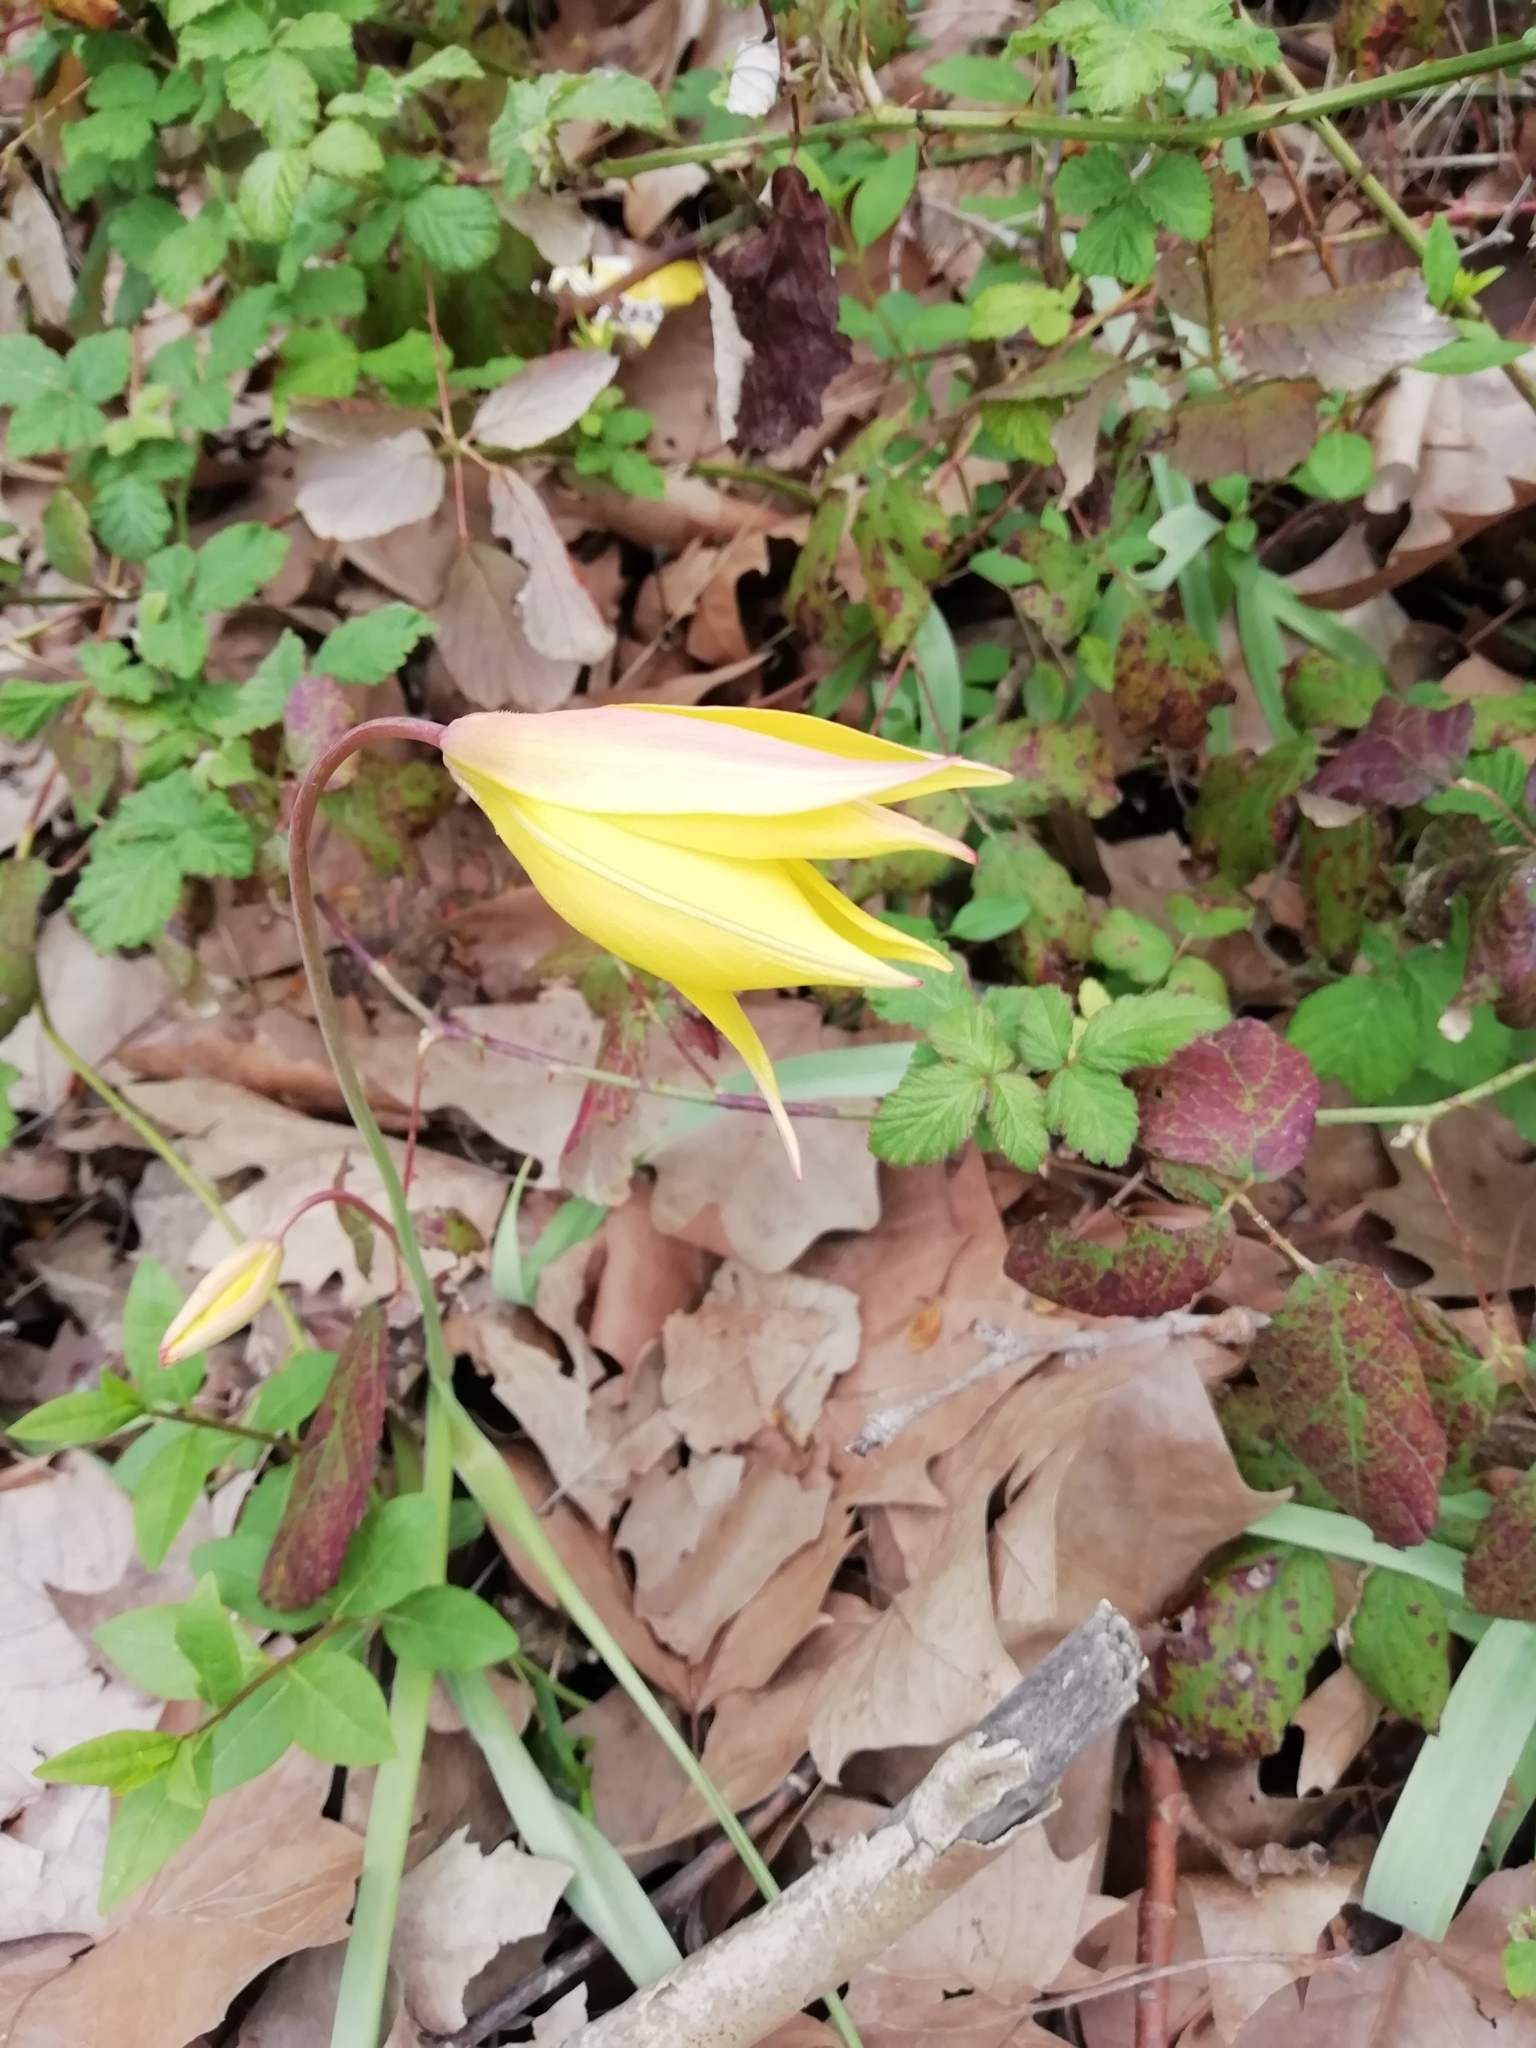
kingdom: Plantae
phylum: Tracheophyta
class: Liliopsida
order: Liliales
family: Liliaceae
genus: Tulipa
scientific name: Tulipa sylvestris
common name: Wild tulip
